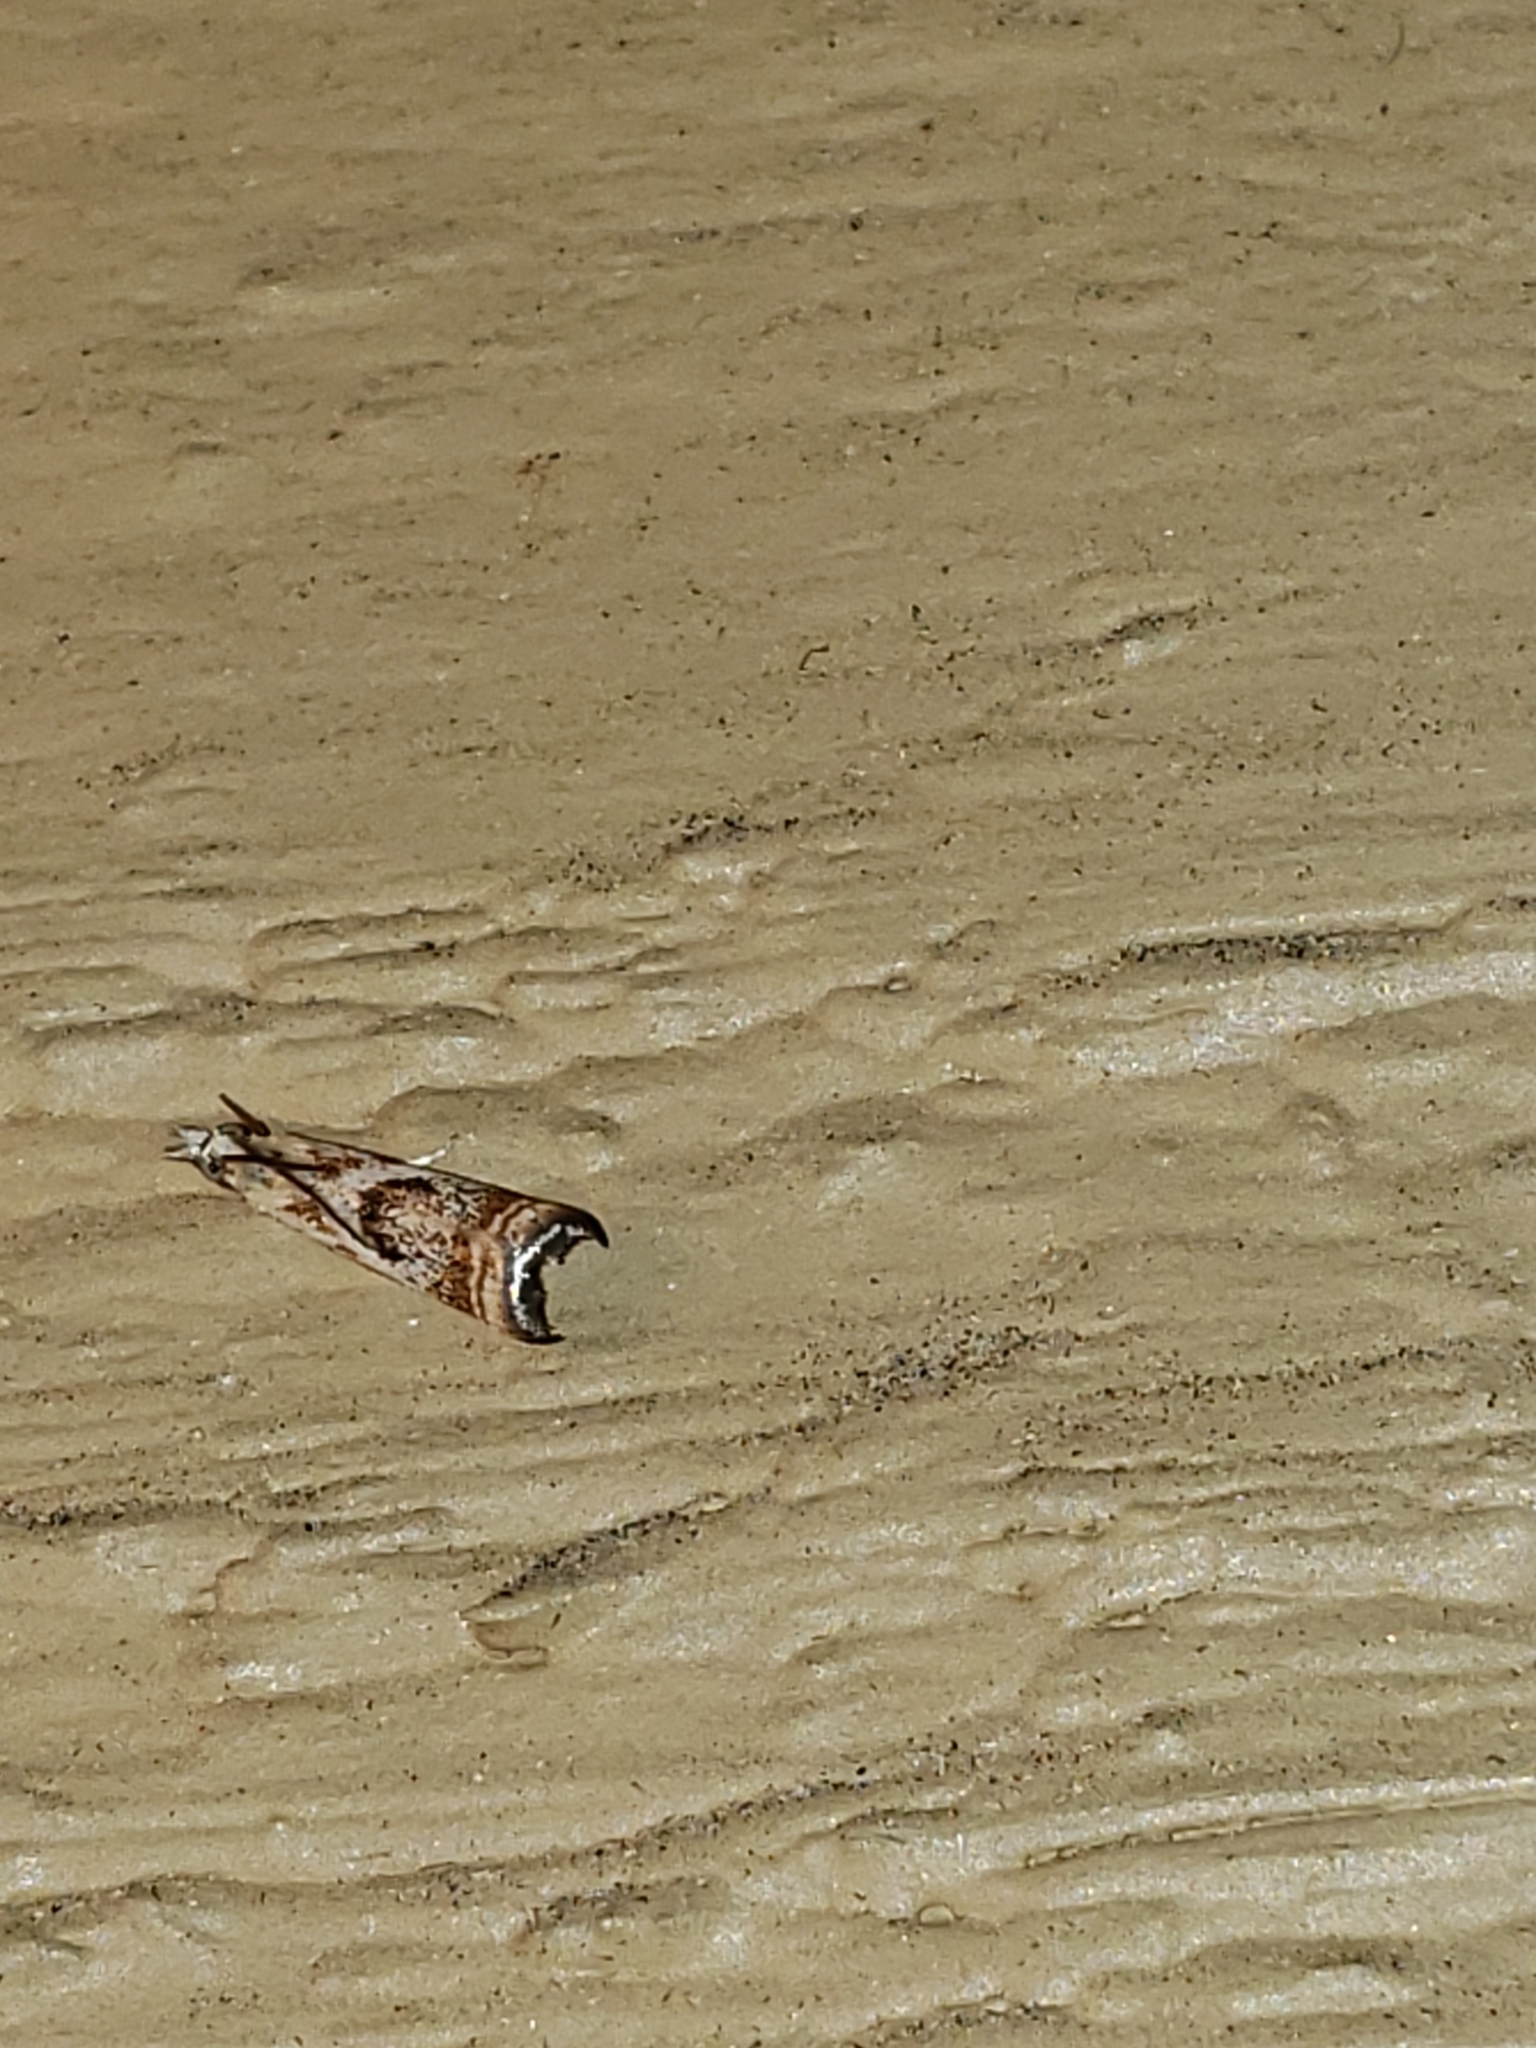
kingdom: Animalia
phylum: Arthropoda
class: Insecta
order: Lepidoptera
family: Crambidae
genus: Microcrambus
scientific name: Microcrambus elegans
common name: Elegant grass-veneer
